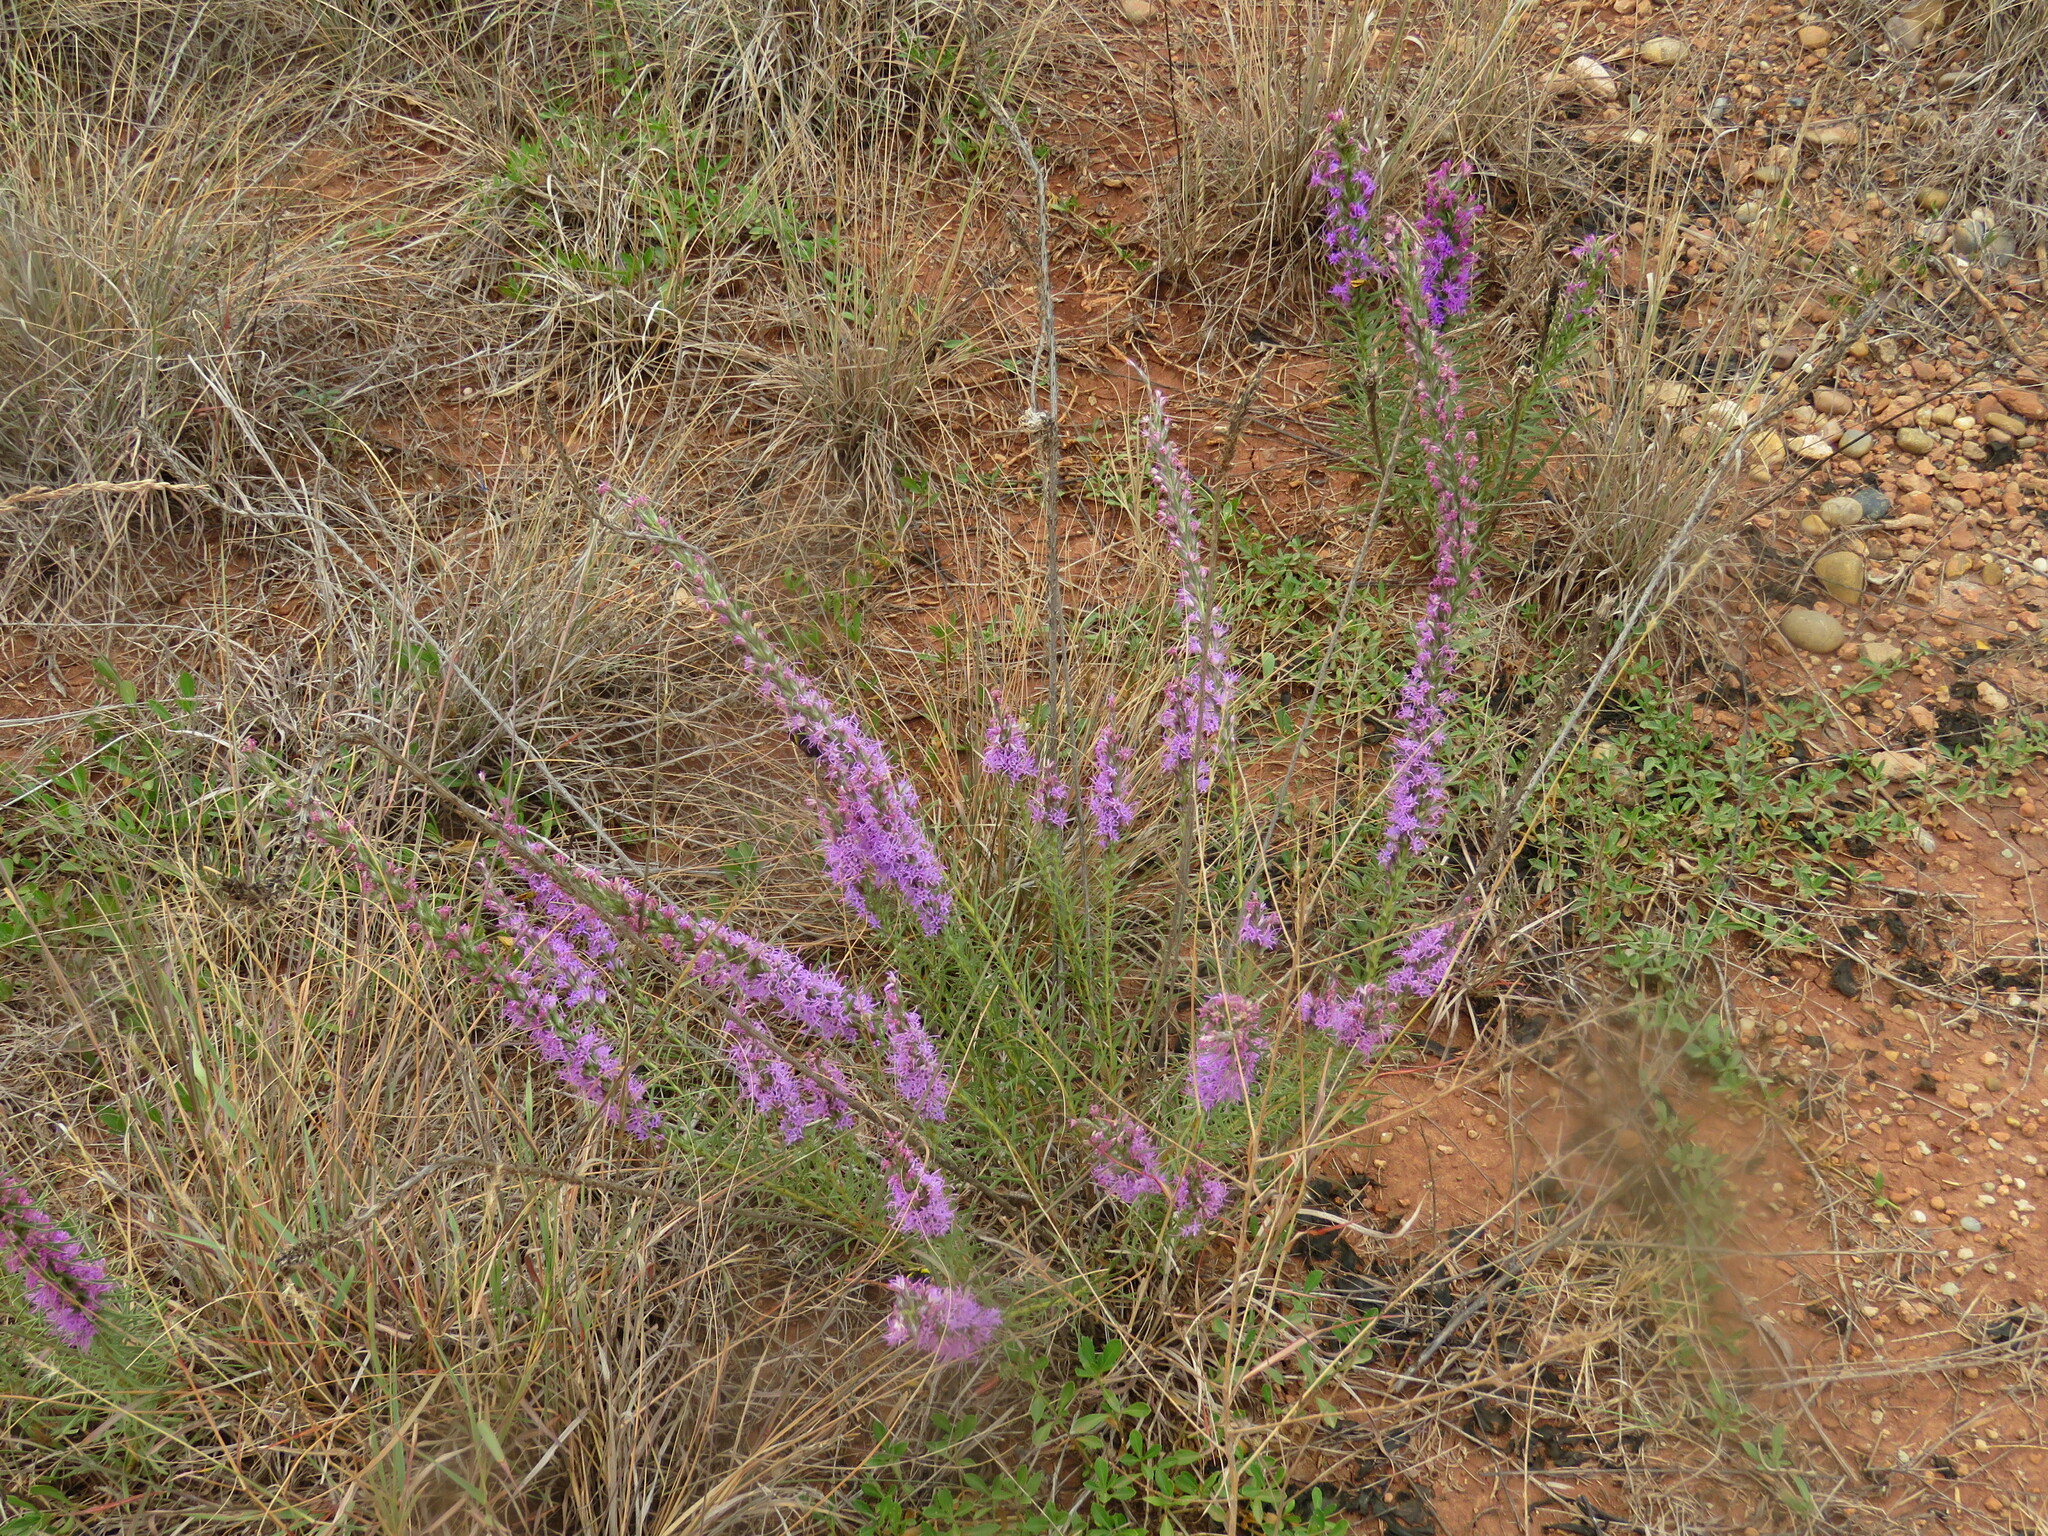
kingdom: Plantae
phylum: Tracheophyta
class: Magnoliopsida
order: Asterales
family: Asteraceae
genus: Liatris
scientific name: Liatris punctata
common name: Dotted gayfeather
